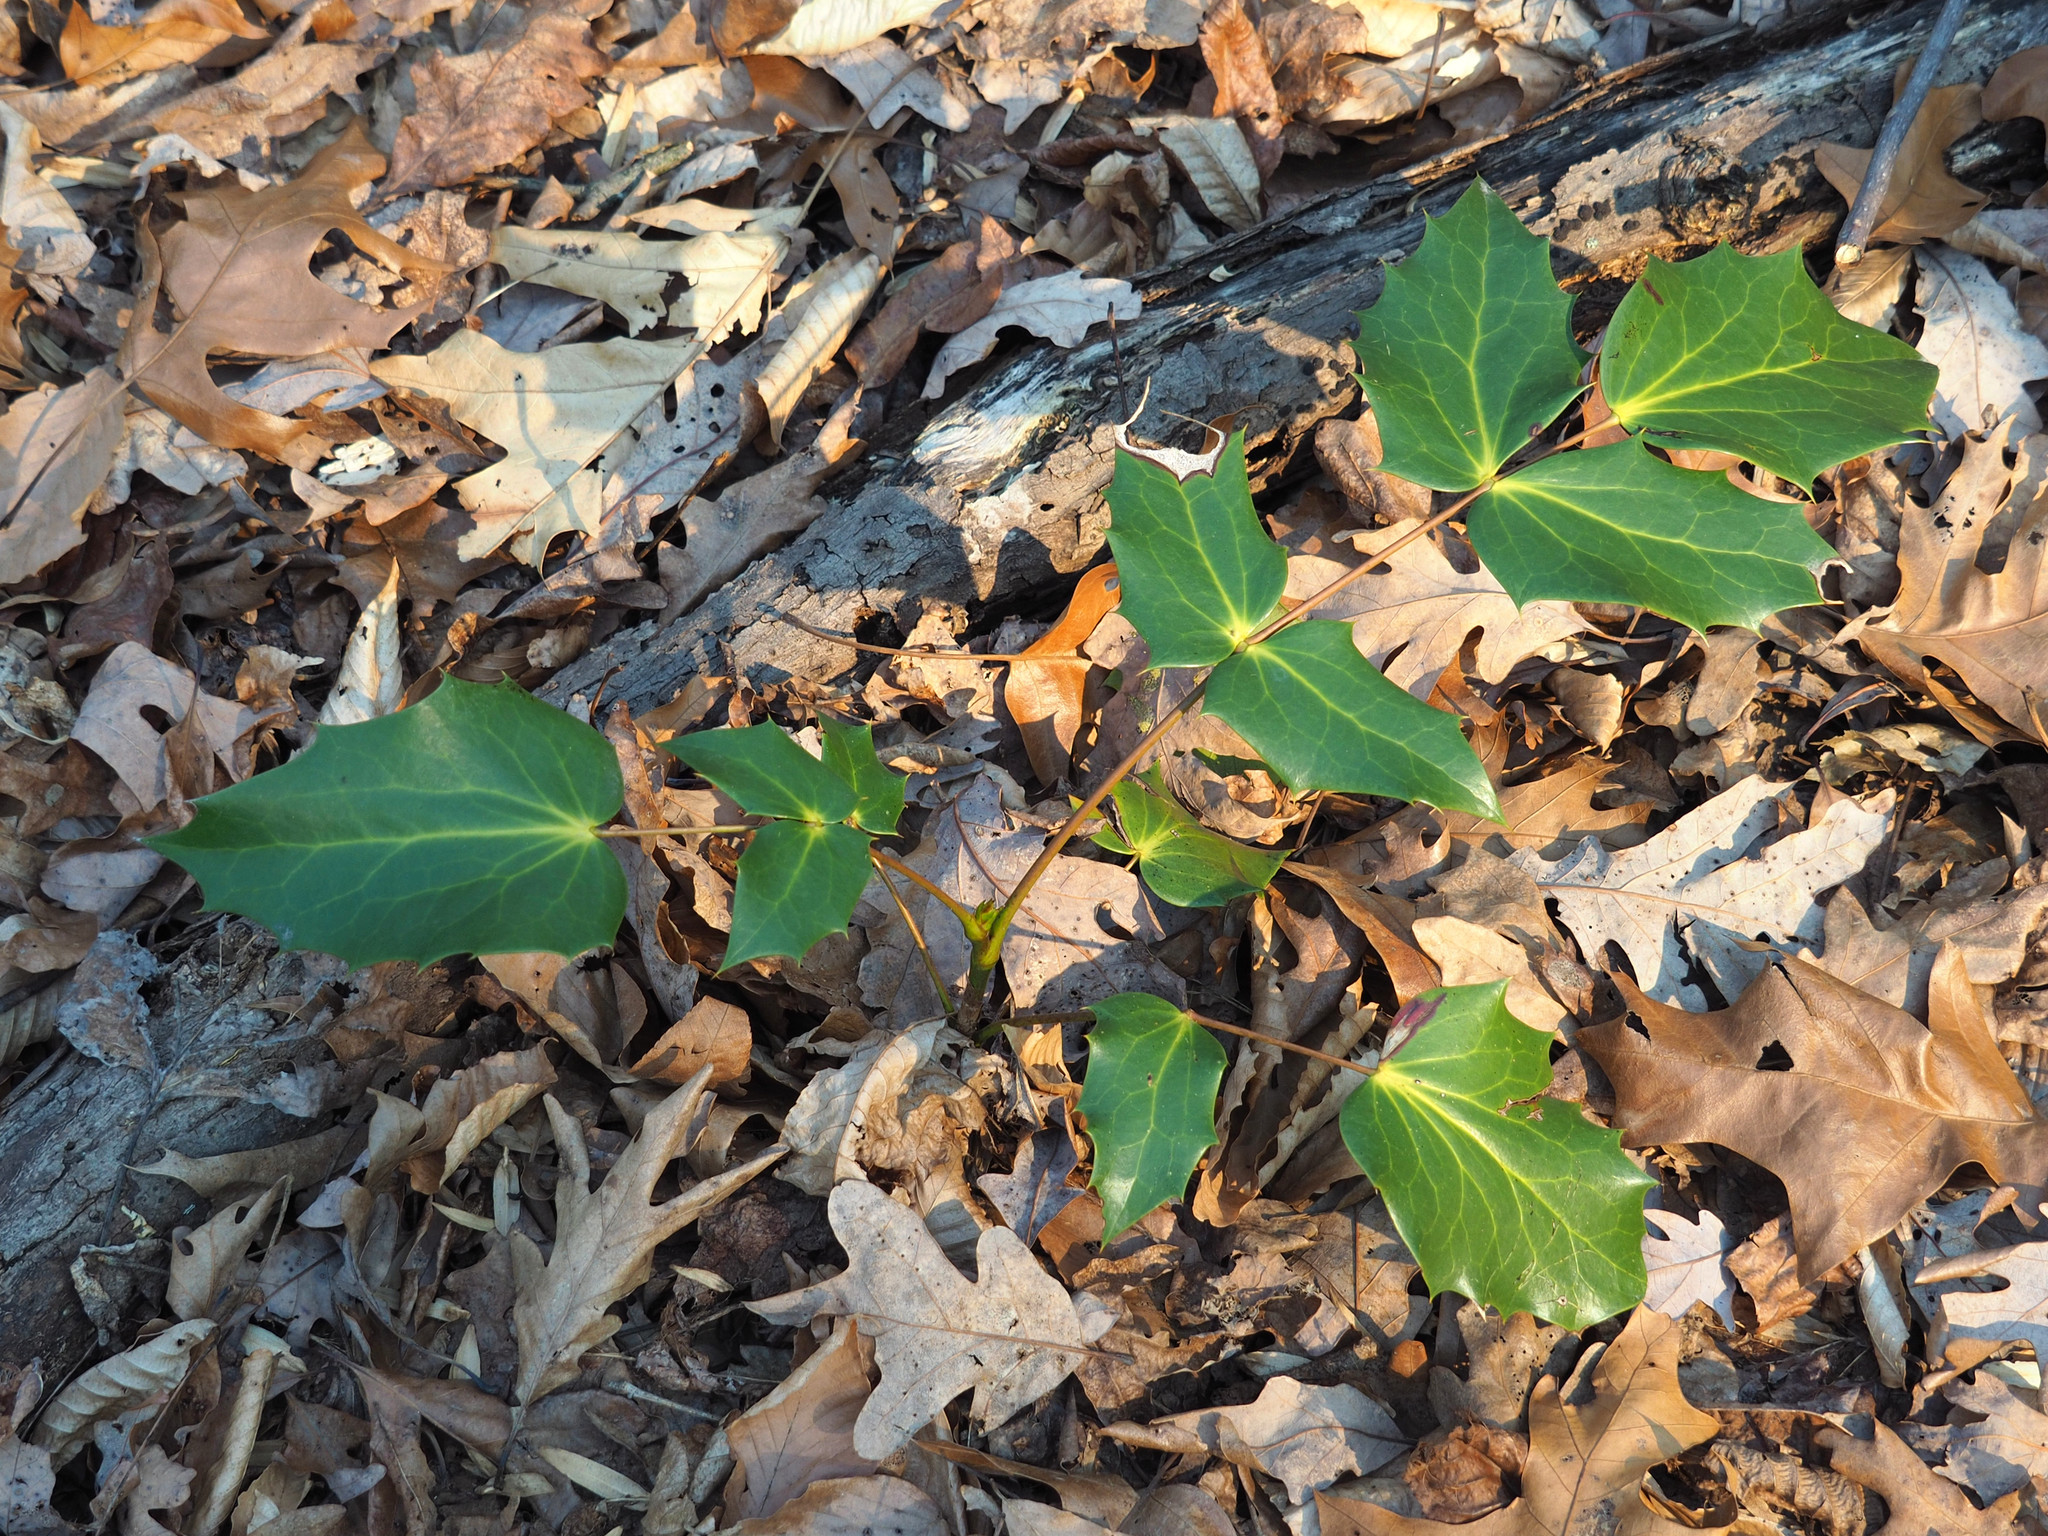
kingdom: Plantae
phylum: Tracheophyta
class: Magnoliopsida
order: Ranunculales
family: Berberidaceae
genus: Mahonia
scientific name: Mahonia bealei
